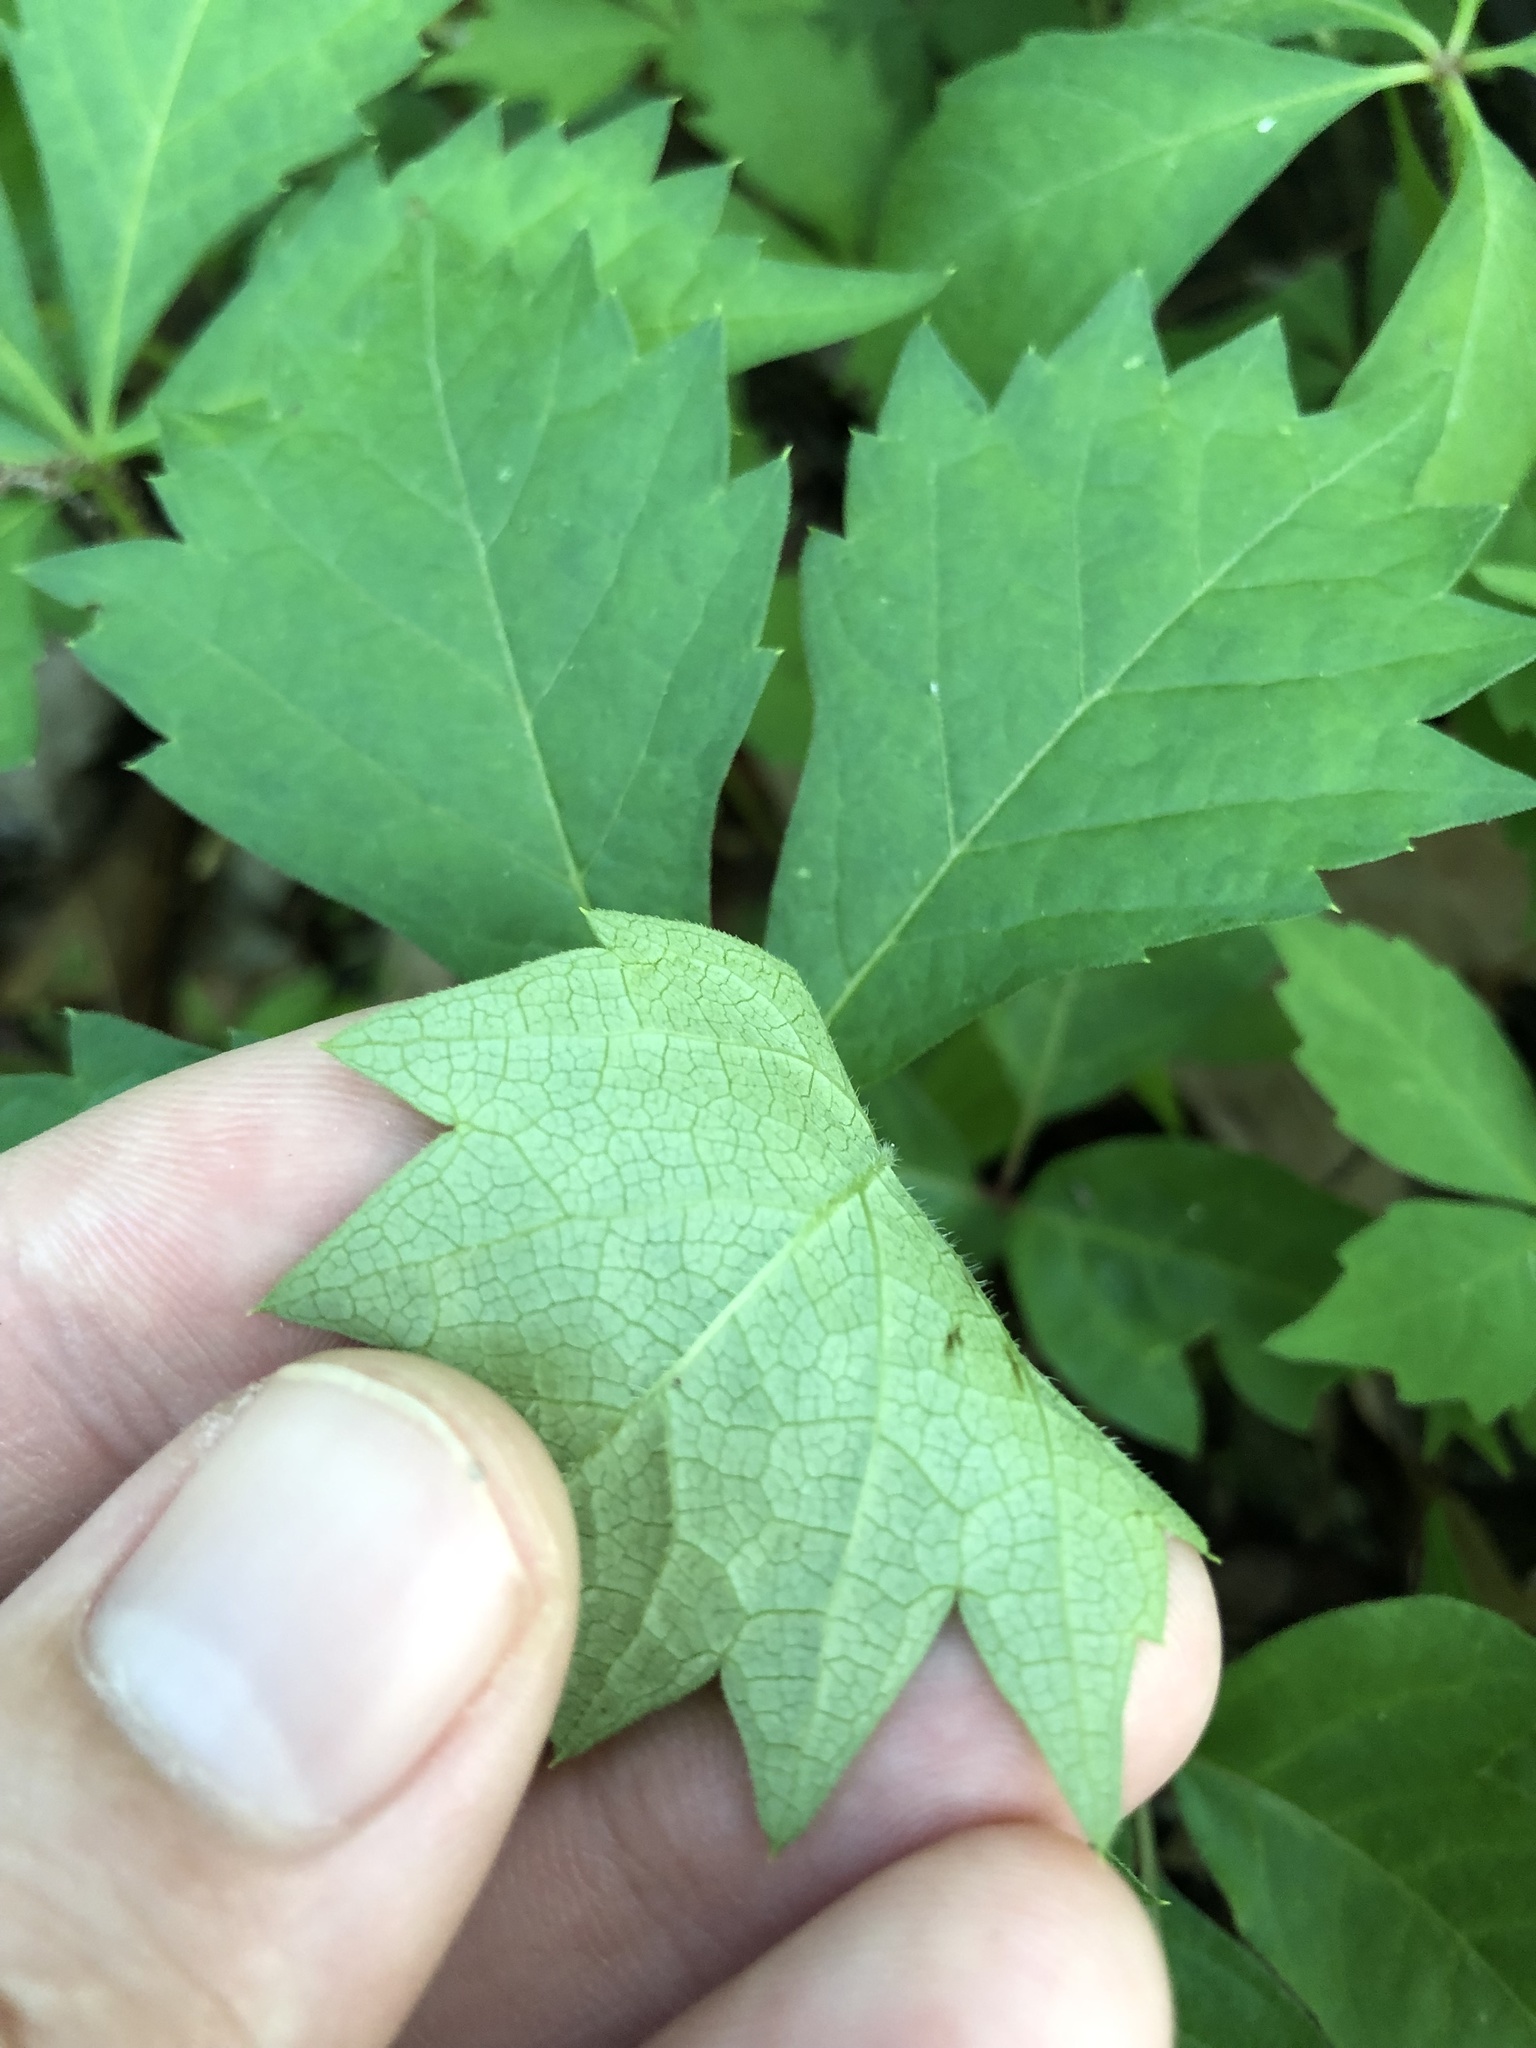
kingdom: Plantae
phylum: Tracheophyta
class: Magnoliopsida
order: Vitales
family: Vitaceae
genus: Parthenocissus
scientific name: Parthenocissus quinquefolia
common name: Virginia-creeper
